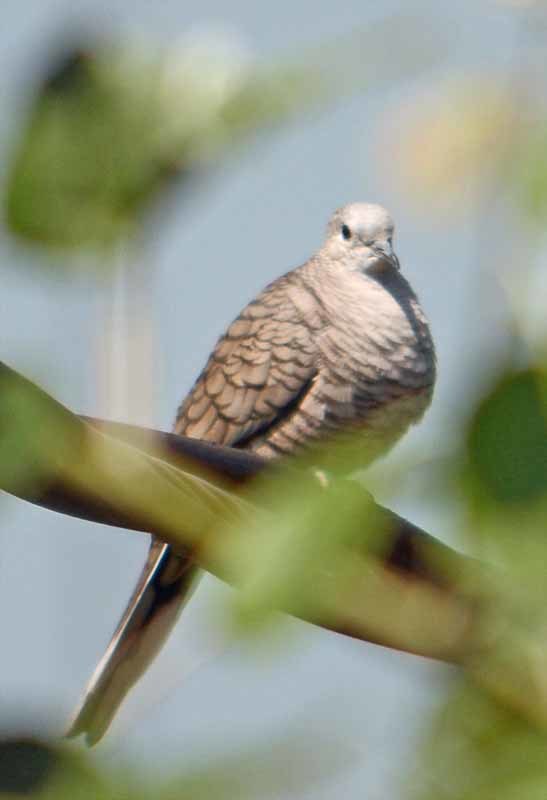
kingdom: Animalia
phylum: Chordata
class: Aves
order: Columbiformes
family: Columbidae
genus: Columbina
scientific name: Columbina inca
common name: Inca dove
